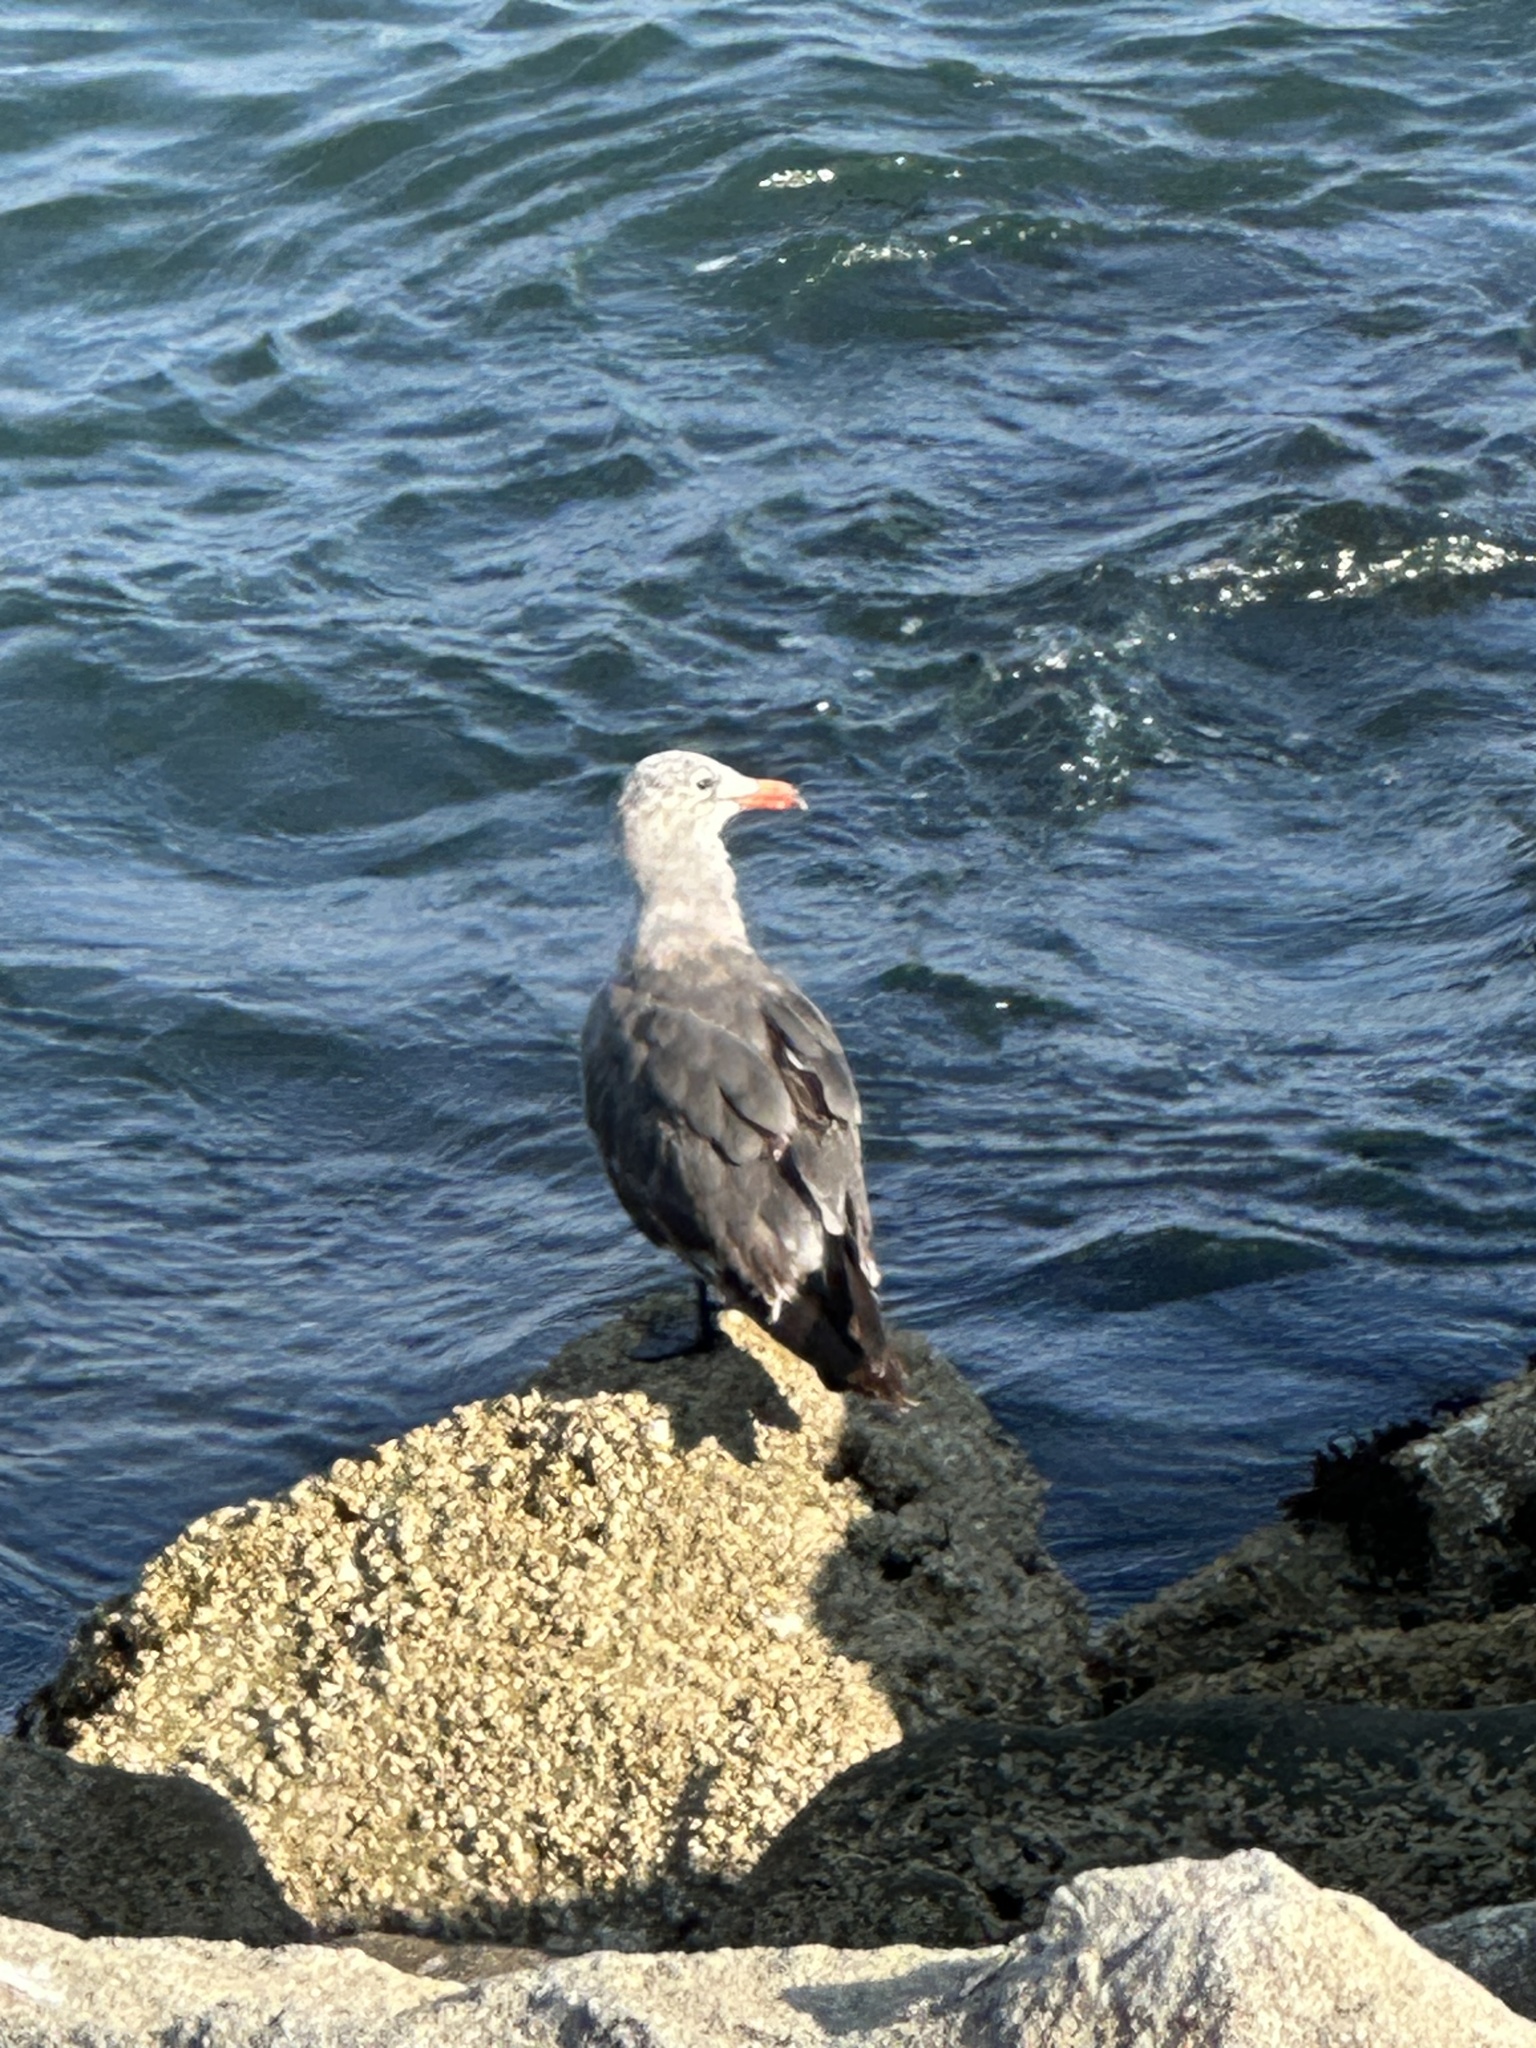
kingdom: Animalia
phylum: Chordata
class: Aves
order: Charadriiformes
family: Laridae
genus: Larus
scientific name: Larus heermanni
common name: Heermann's gull
